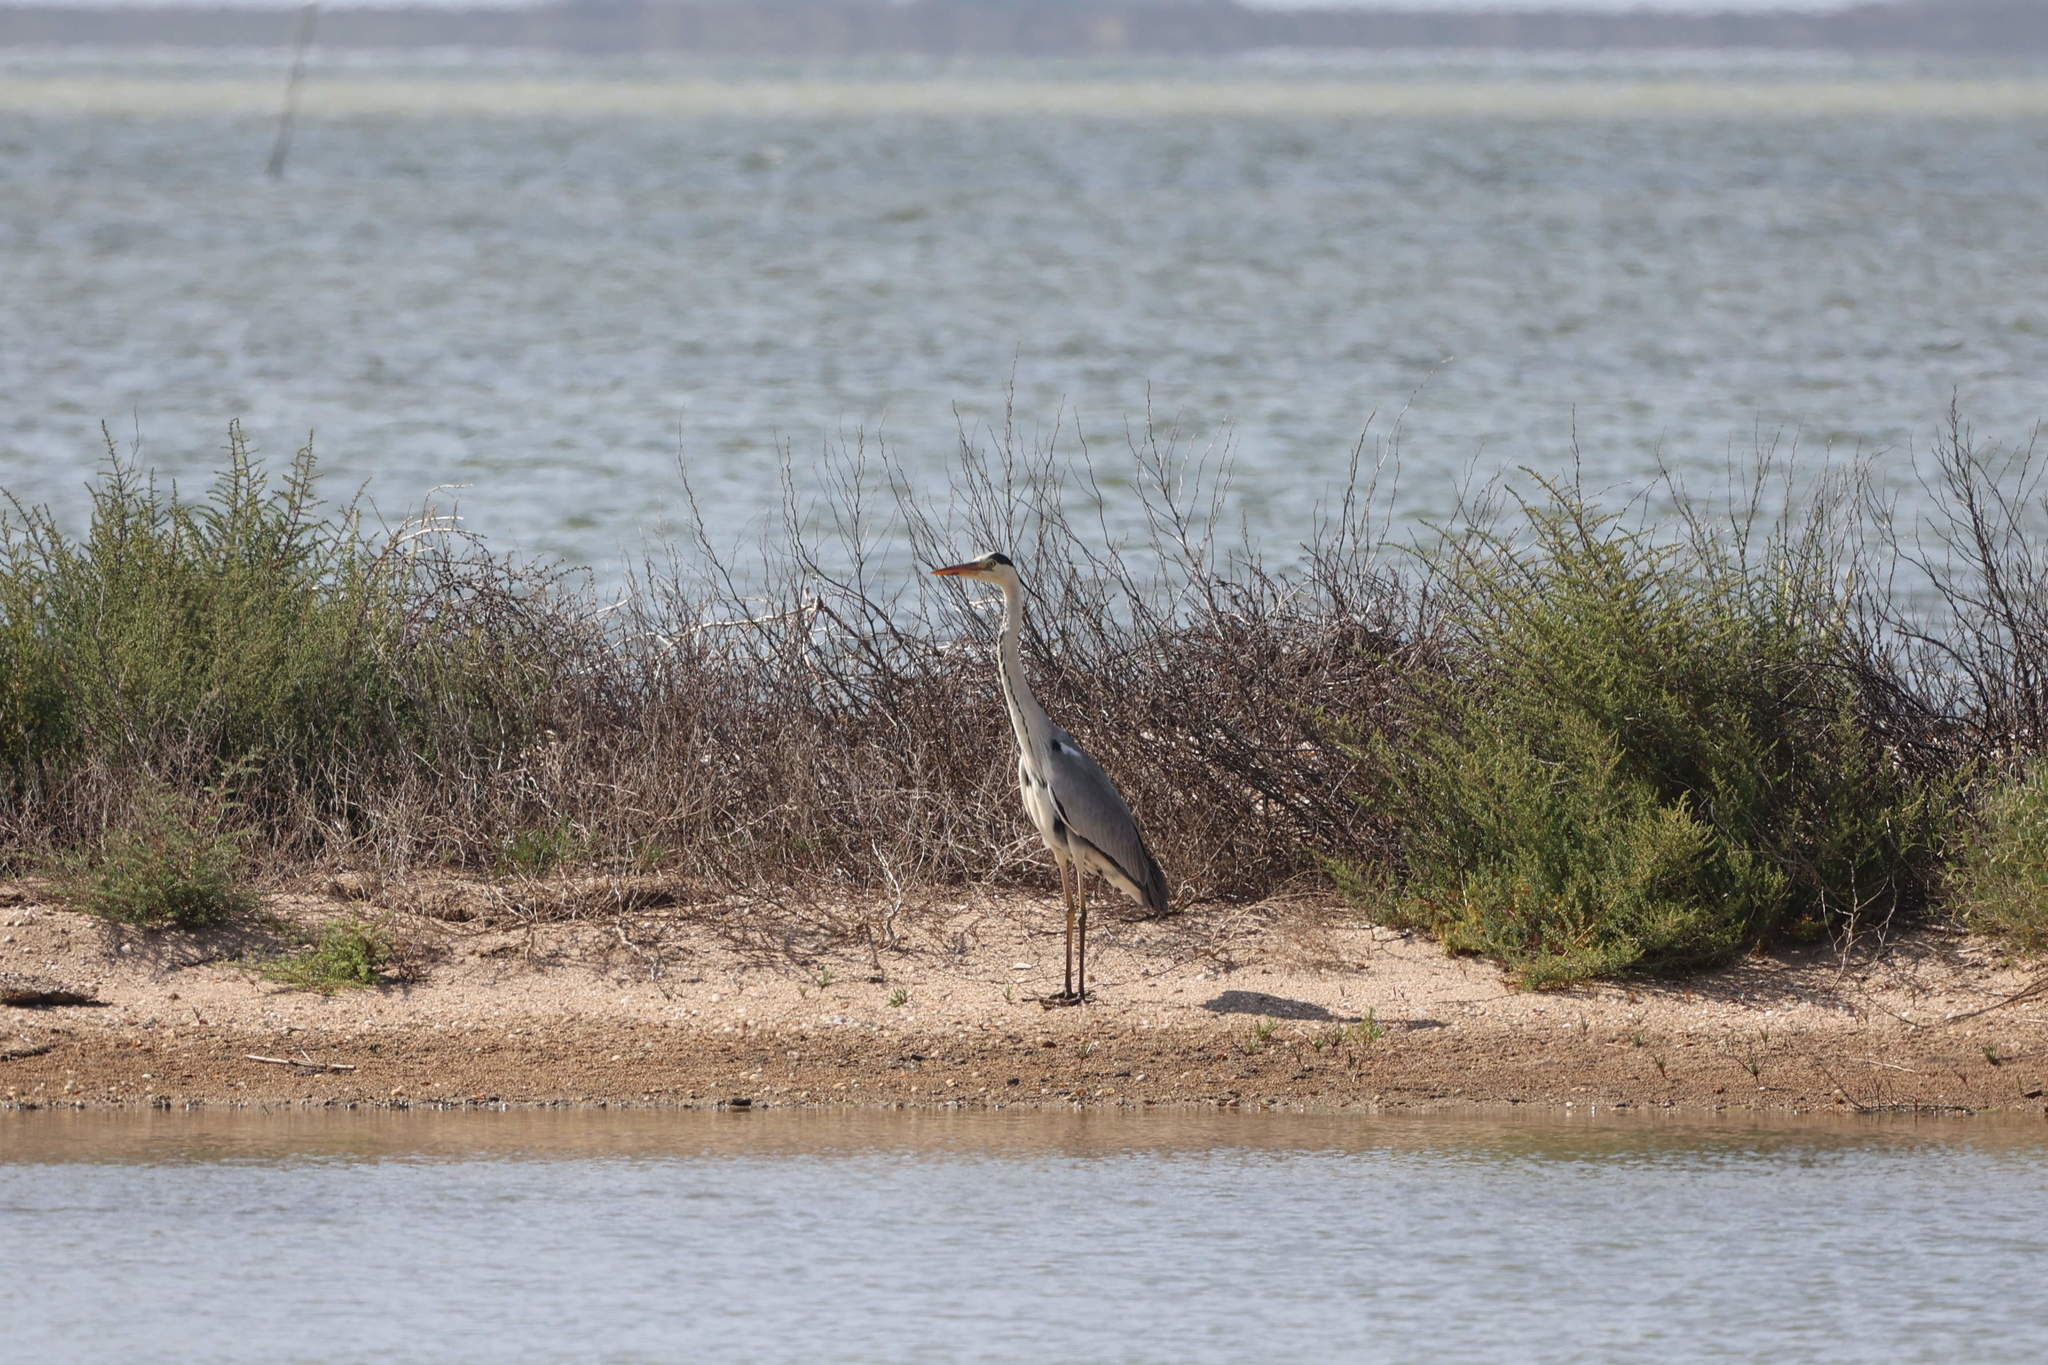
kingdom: Animalia
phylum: Chordata
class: Aves
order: Pelecaniformes
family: Ardeidae
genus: Ardea
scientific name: Ardea cinerea
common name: Grey heron
